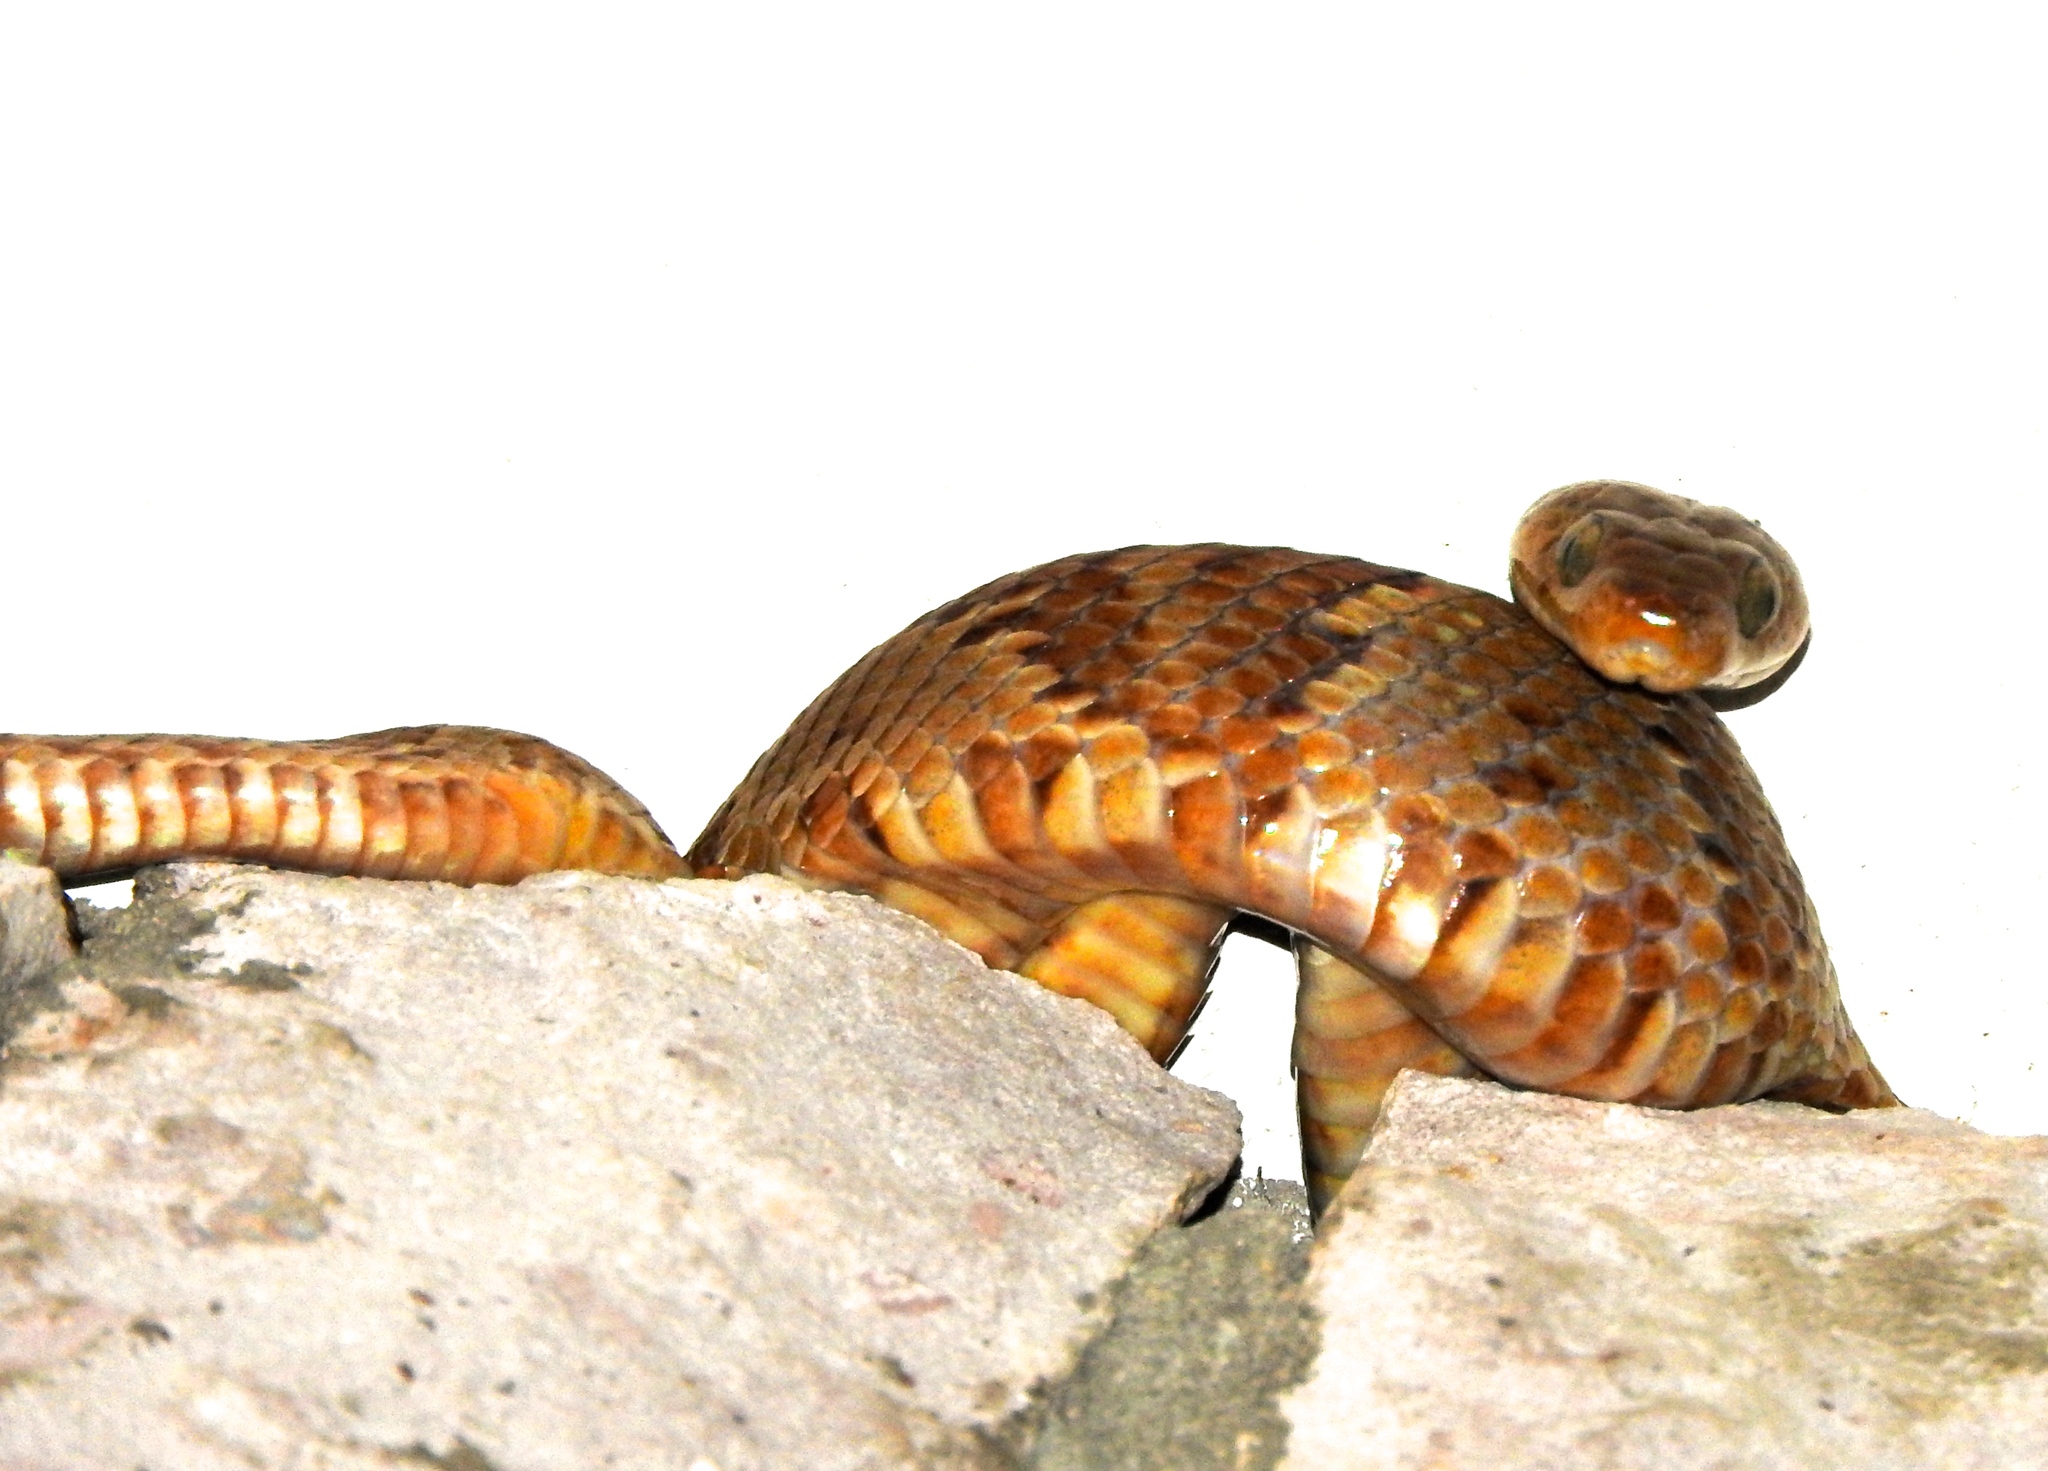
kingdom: Animalia
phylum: Chordata
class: Squamata
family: Colubridae
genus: Trimorphodon
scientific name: Trimorphodon paucimaculatus
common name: Sinaloan lyresnake
